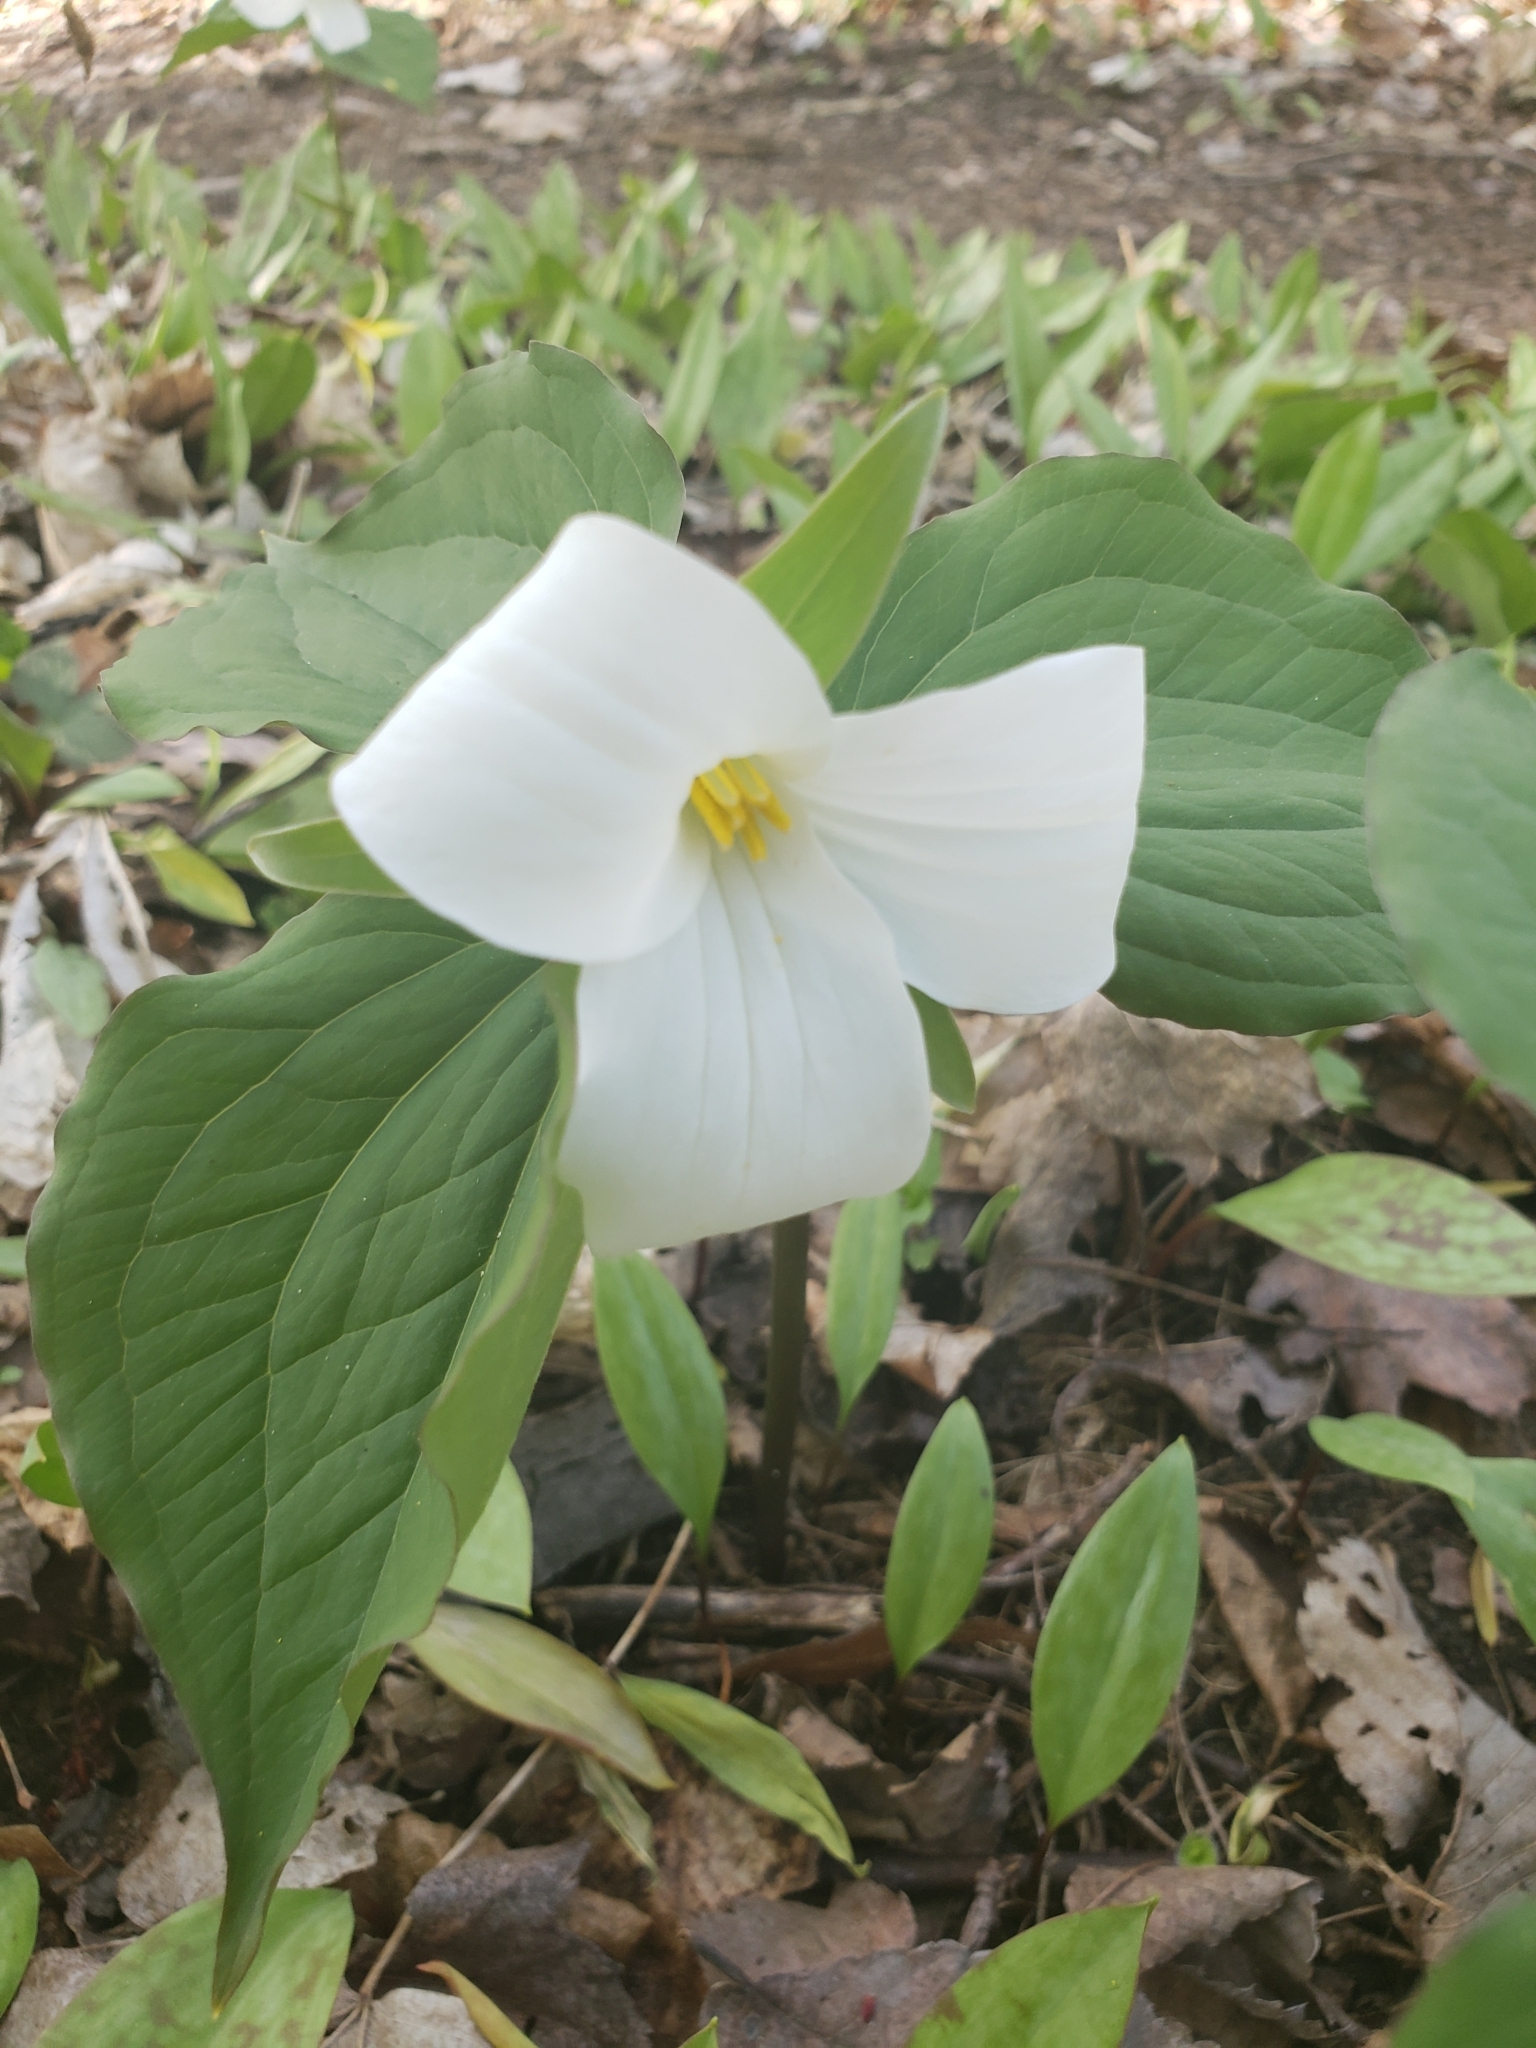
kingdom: Plantae
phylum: Tracheophyta
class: Liliopsida
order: Liliales
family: Melanthiaceae
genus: Trillium
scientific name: Trillium grandiflorum
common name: Great white trillium
